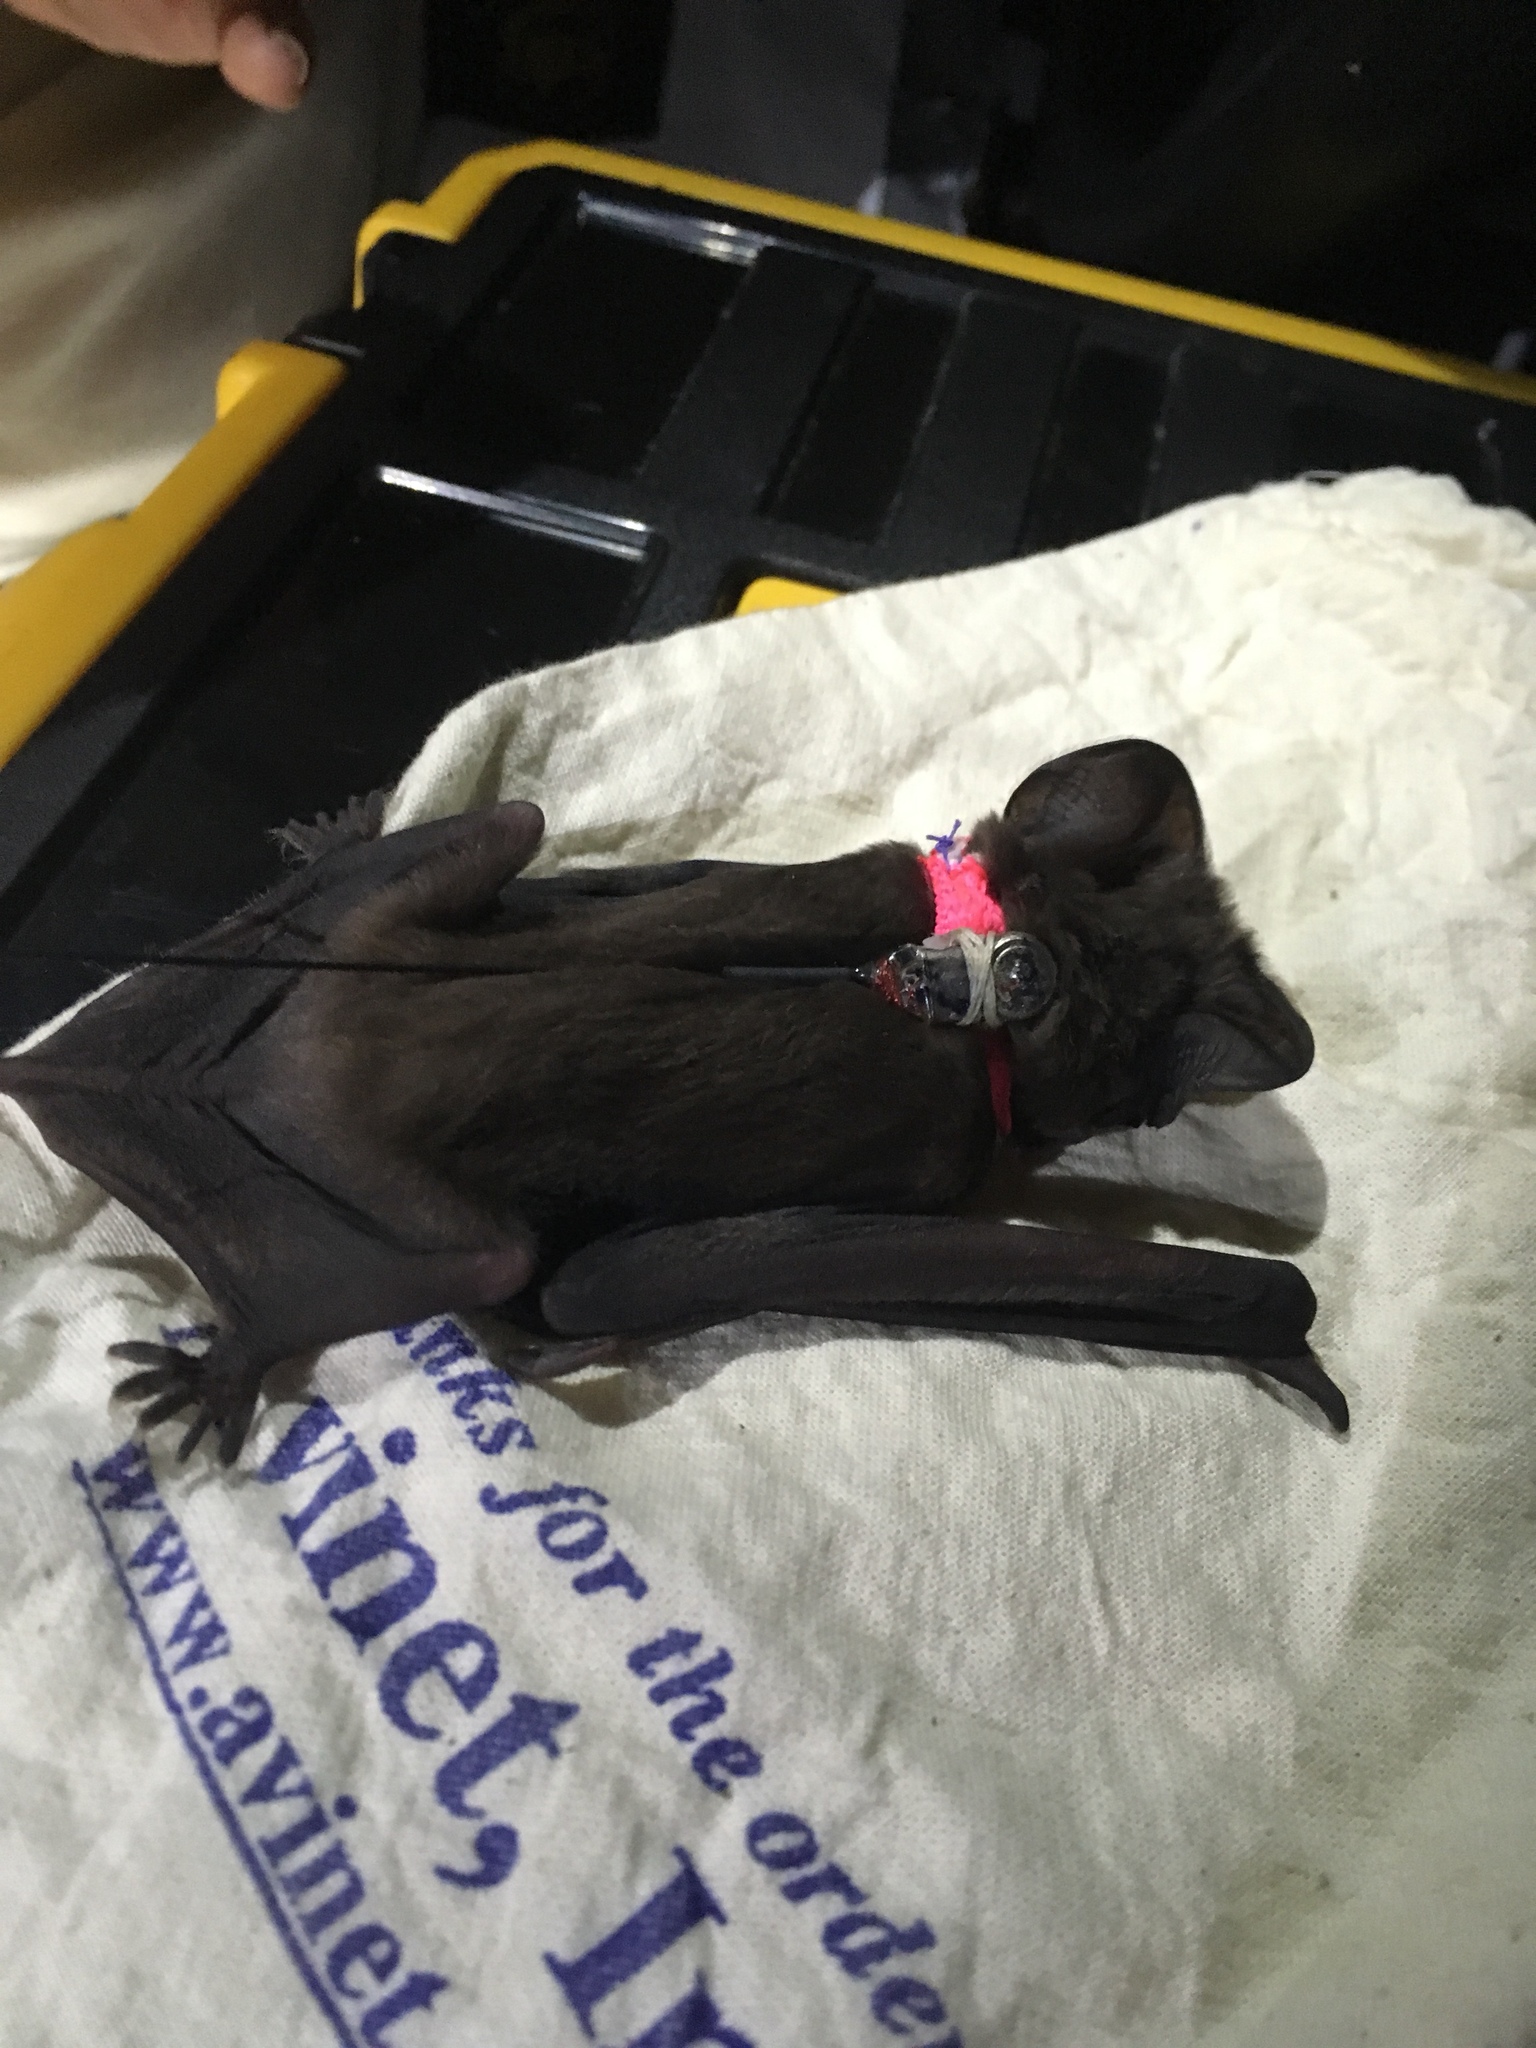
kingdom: Animalia
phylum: Chordata
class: Mammalia
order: Chiroptera
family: Molossidae
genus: Eumops
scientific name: Eumops floridanus
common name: Florida bonneted bat
